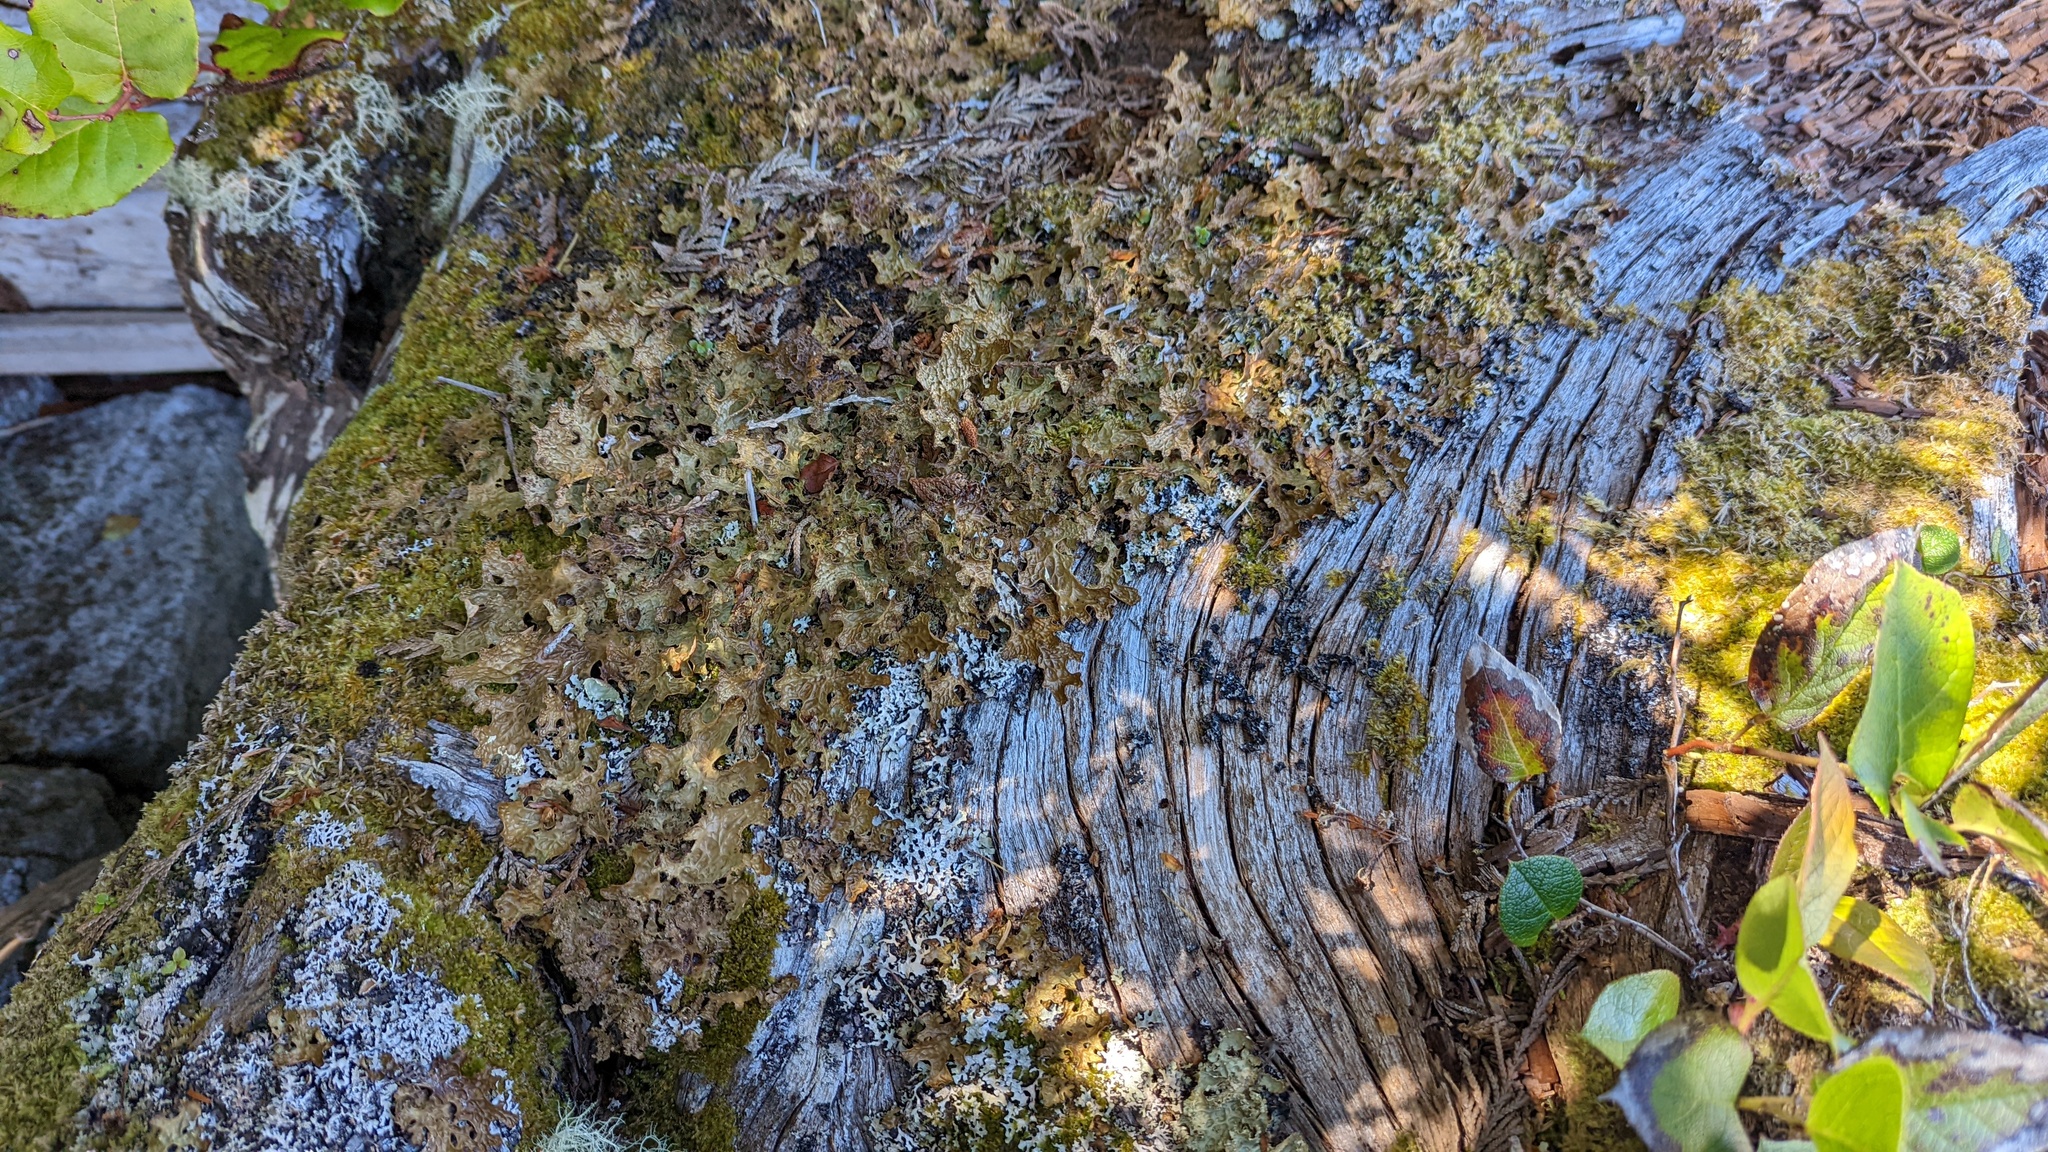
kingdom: Fungi
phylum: Ascomycota
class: Lecanoromycetes
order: Peltigerales
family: Lobariaceae
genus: Lobaria
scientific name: Lobaria pulmonaria
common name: Lungwort
